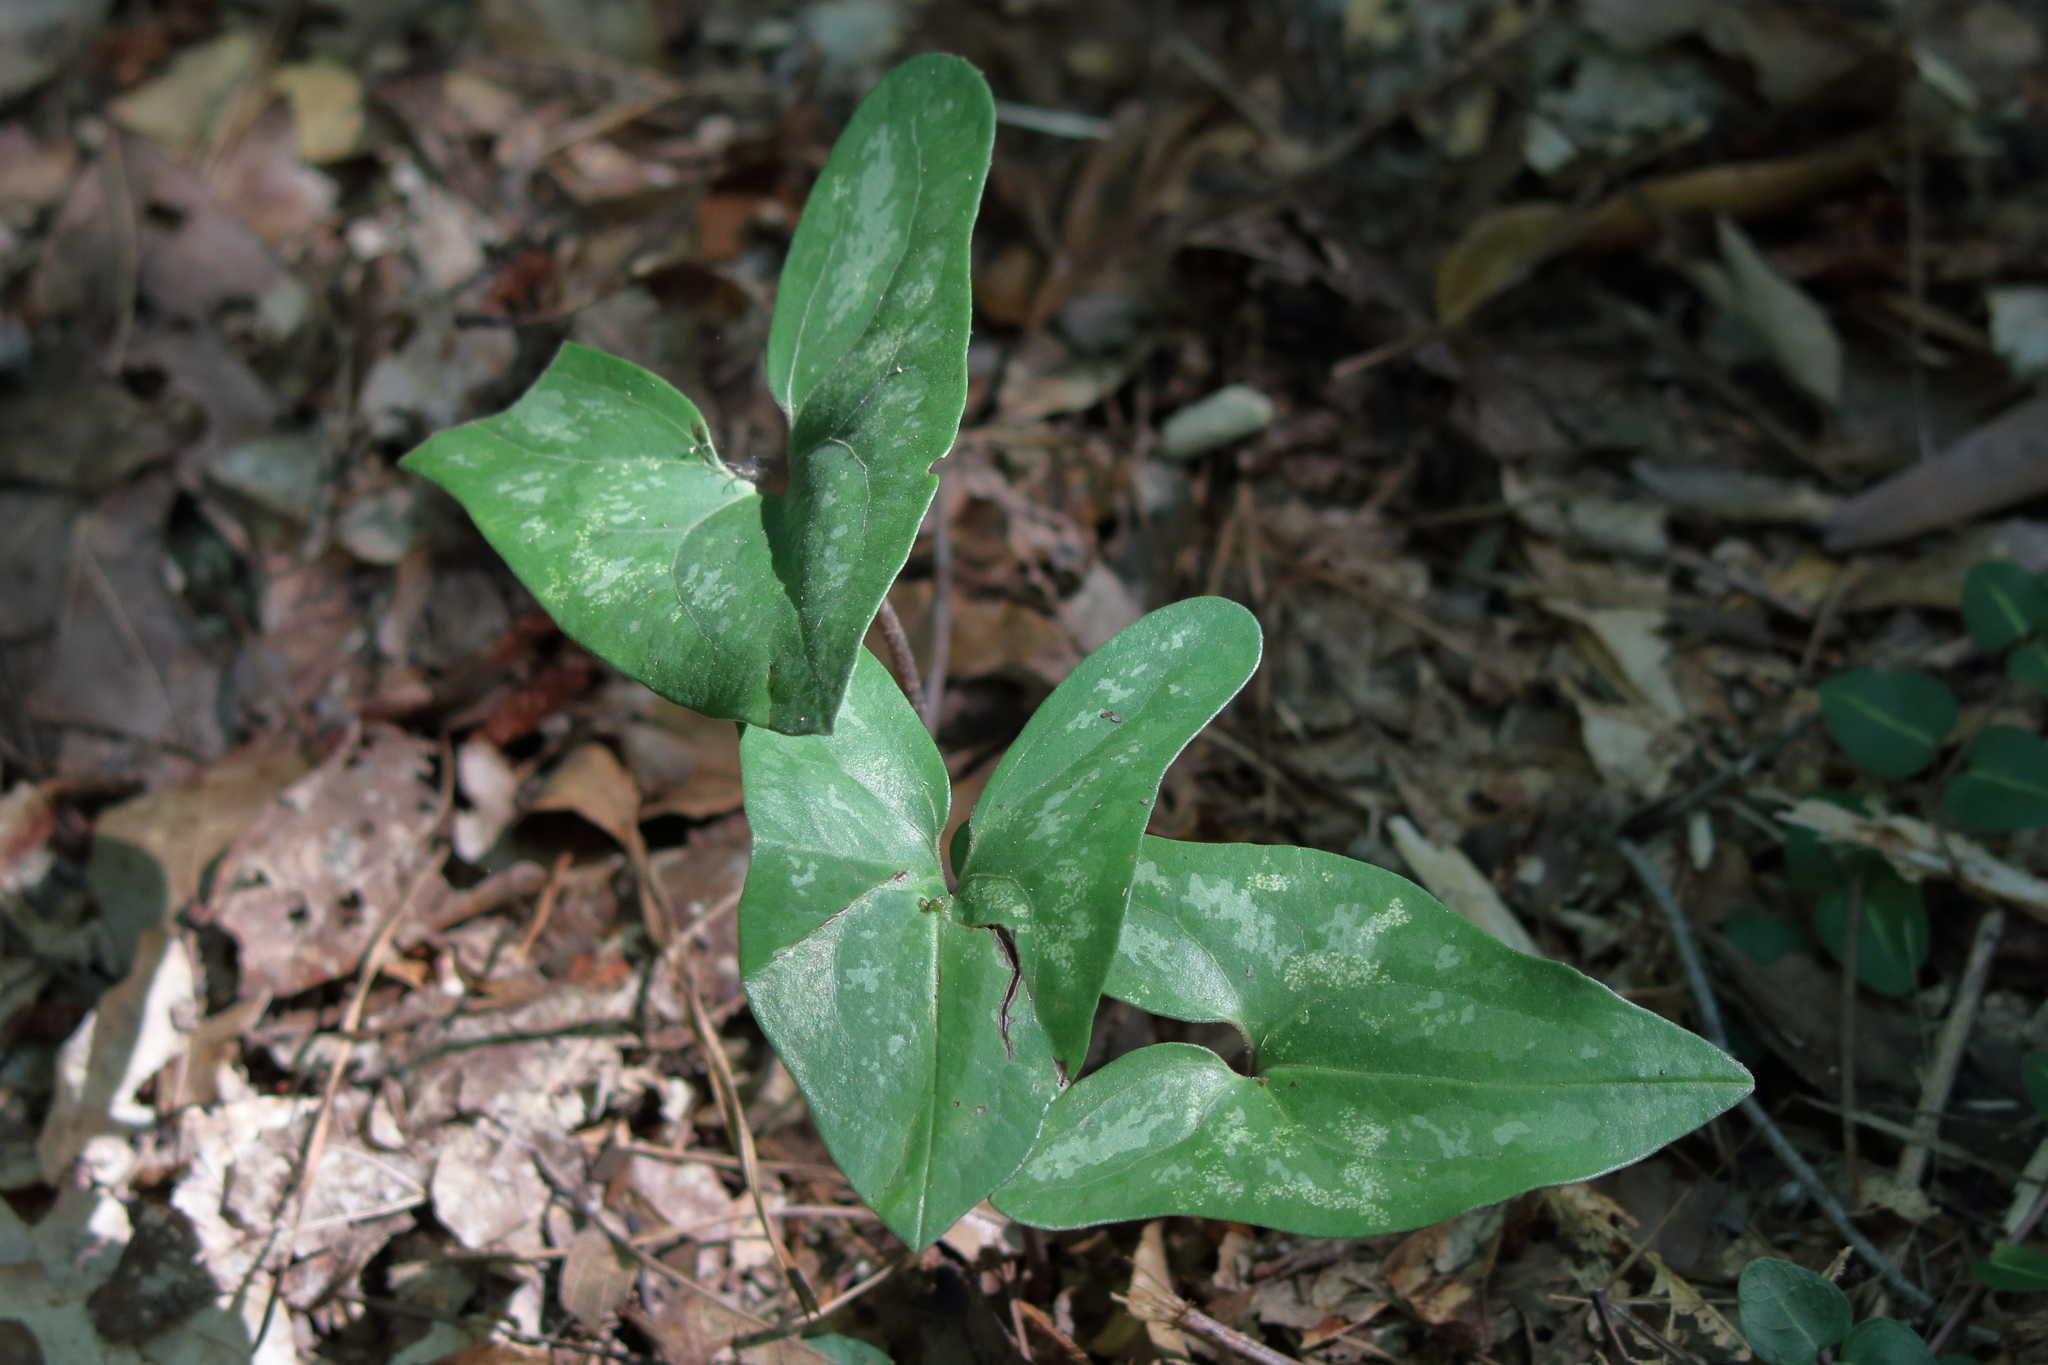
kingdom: Plantae
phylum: Tracheophyta
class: Magnoliopsida
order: Piperales
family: Aristolochiaceae
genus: Hexastylis
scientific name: Hexastylis arifolia
